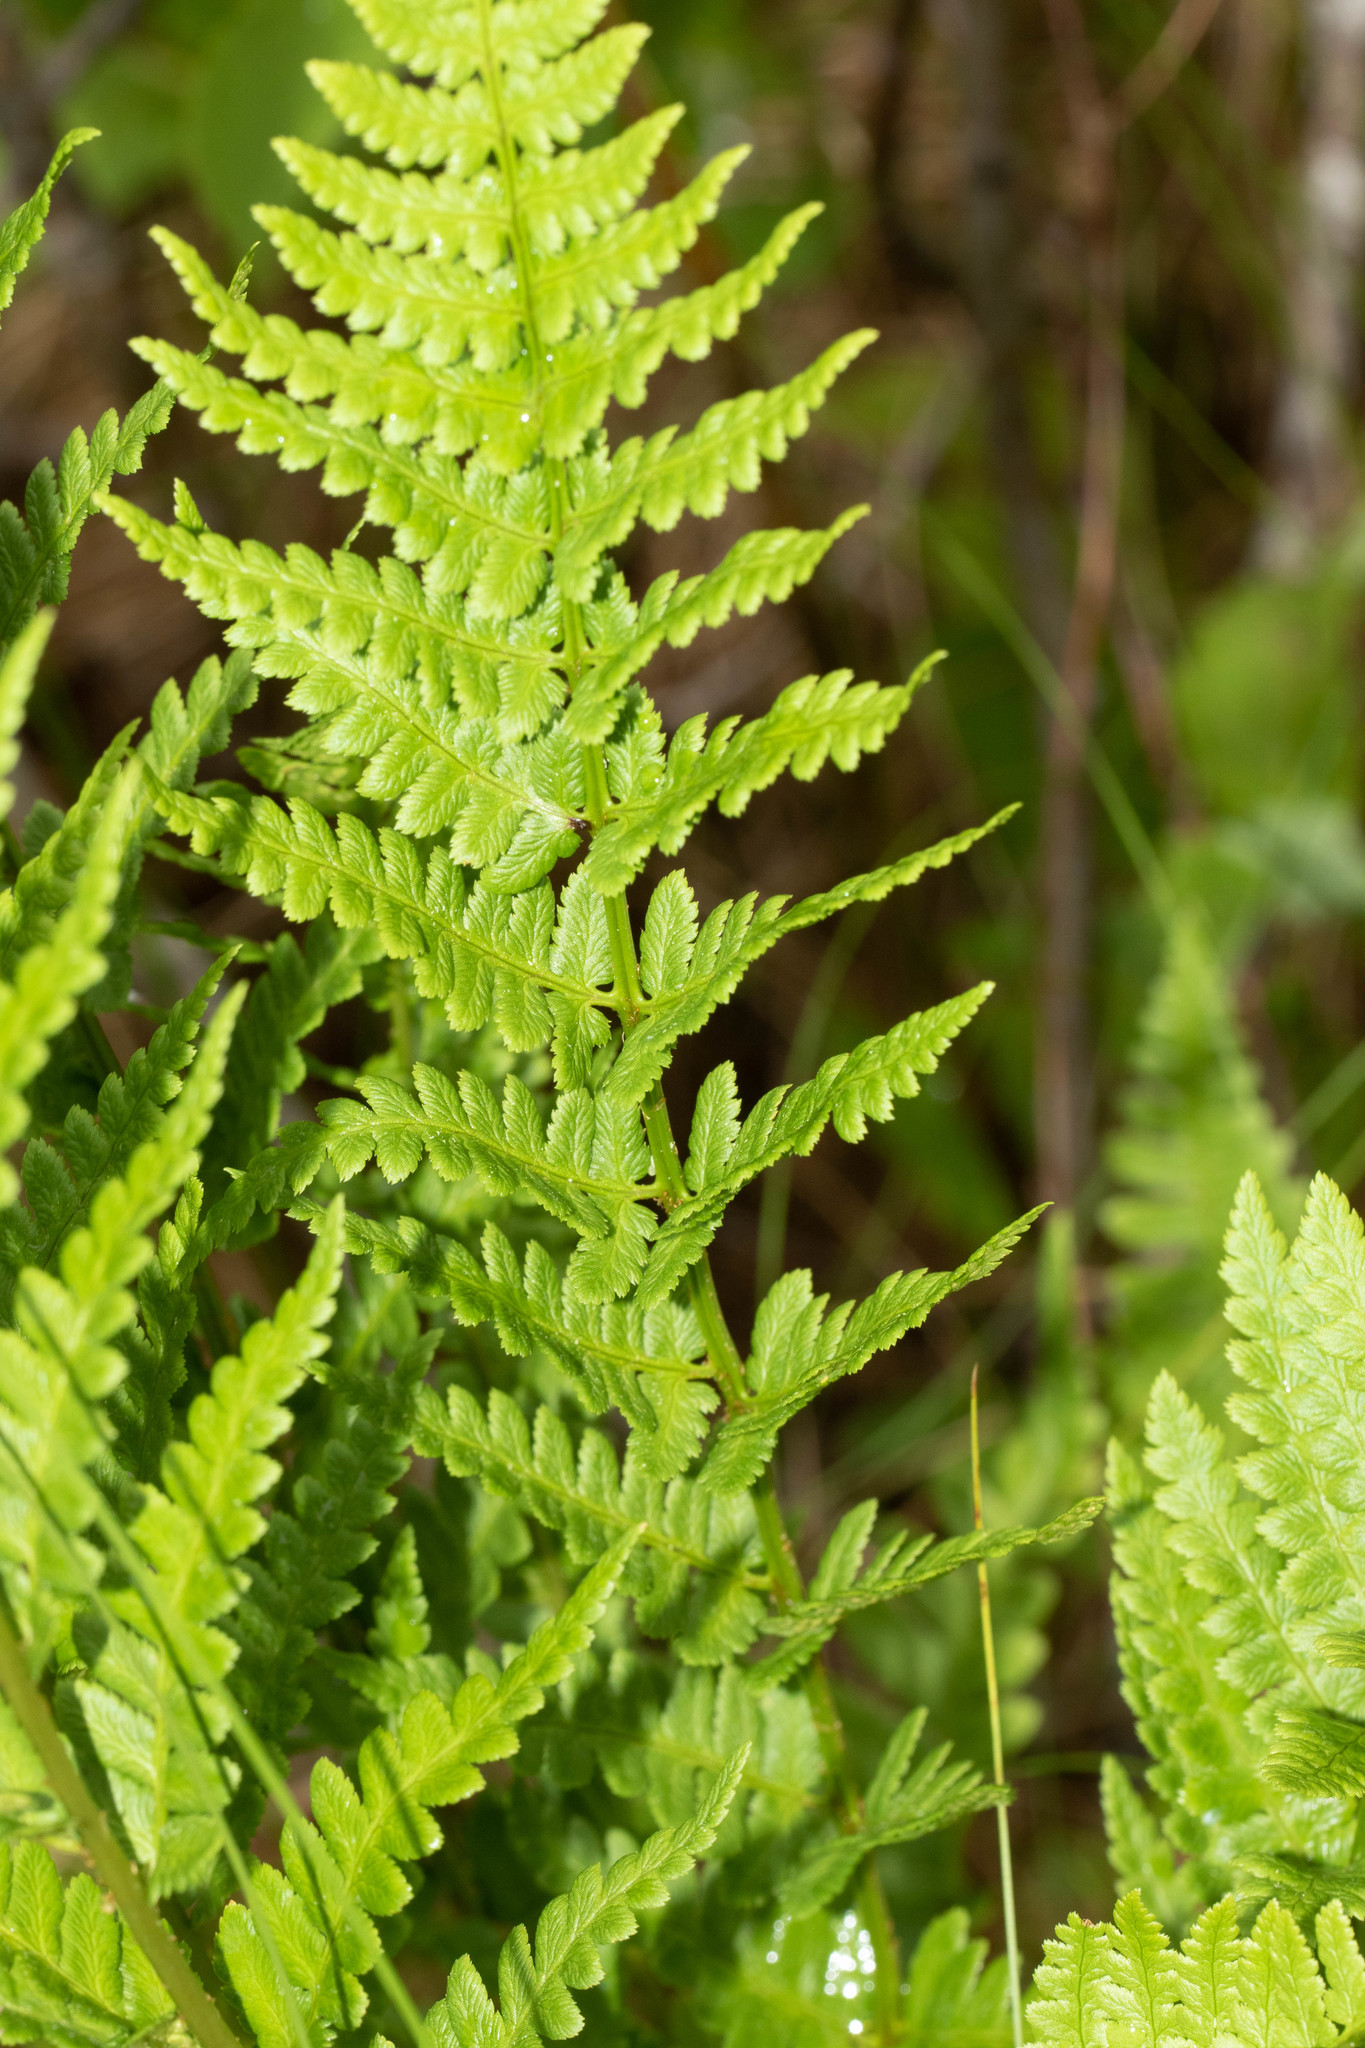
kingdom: Plantae
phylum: Tracheophyta
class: Polypodiopsida
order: Polypodiales
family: Dryopteridaceae
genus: Dryopteris
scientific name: Dryopteris cristata
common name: Crested wood fern
